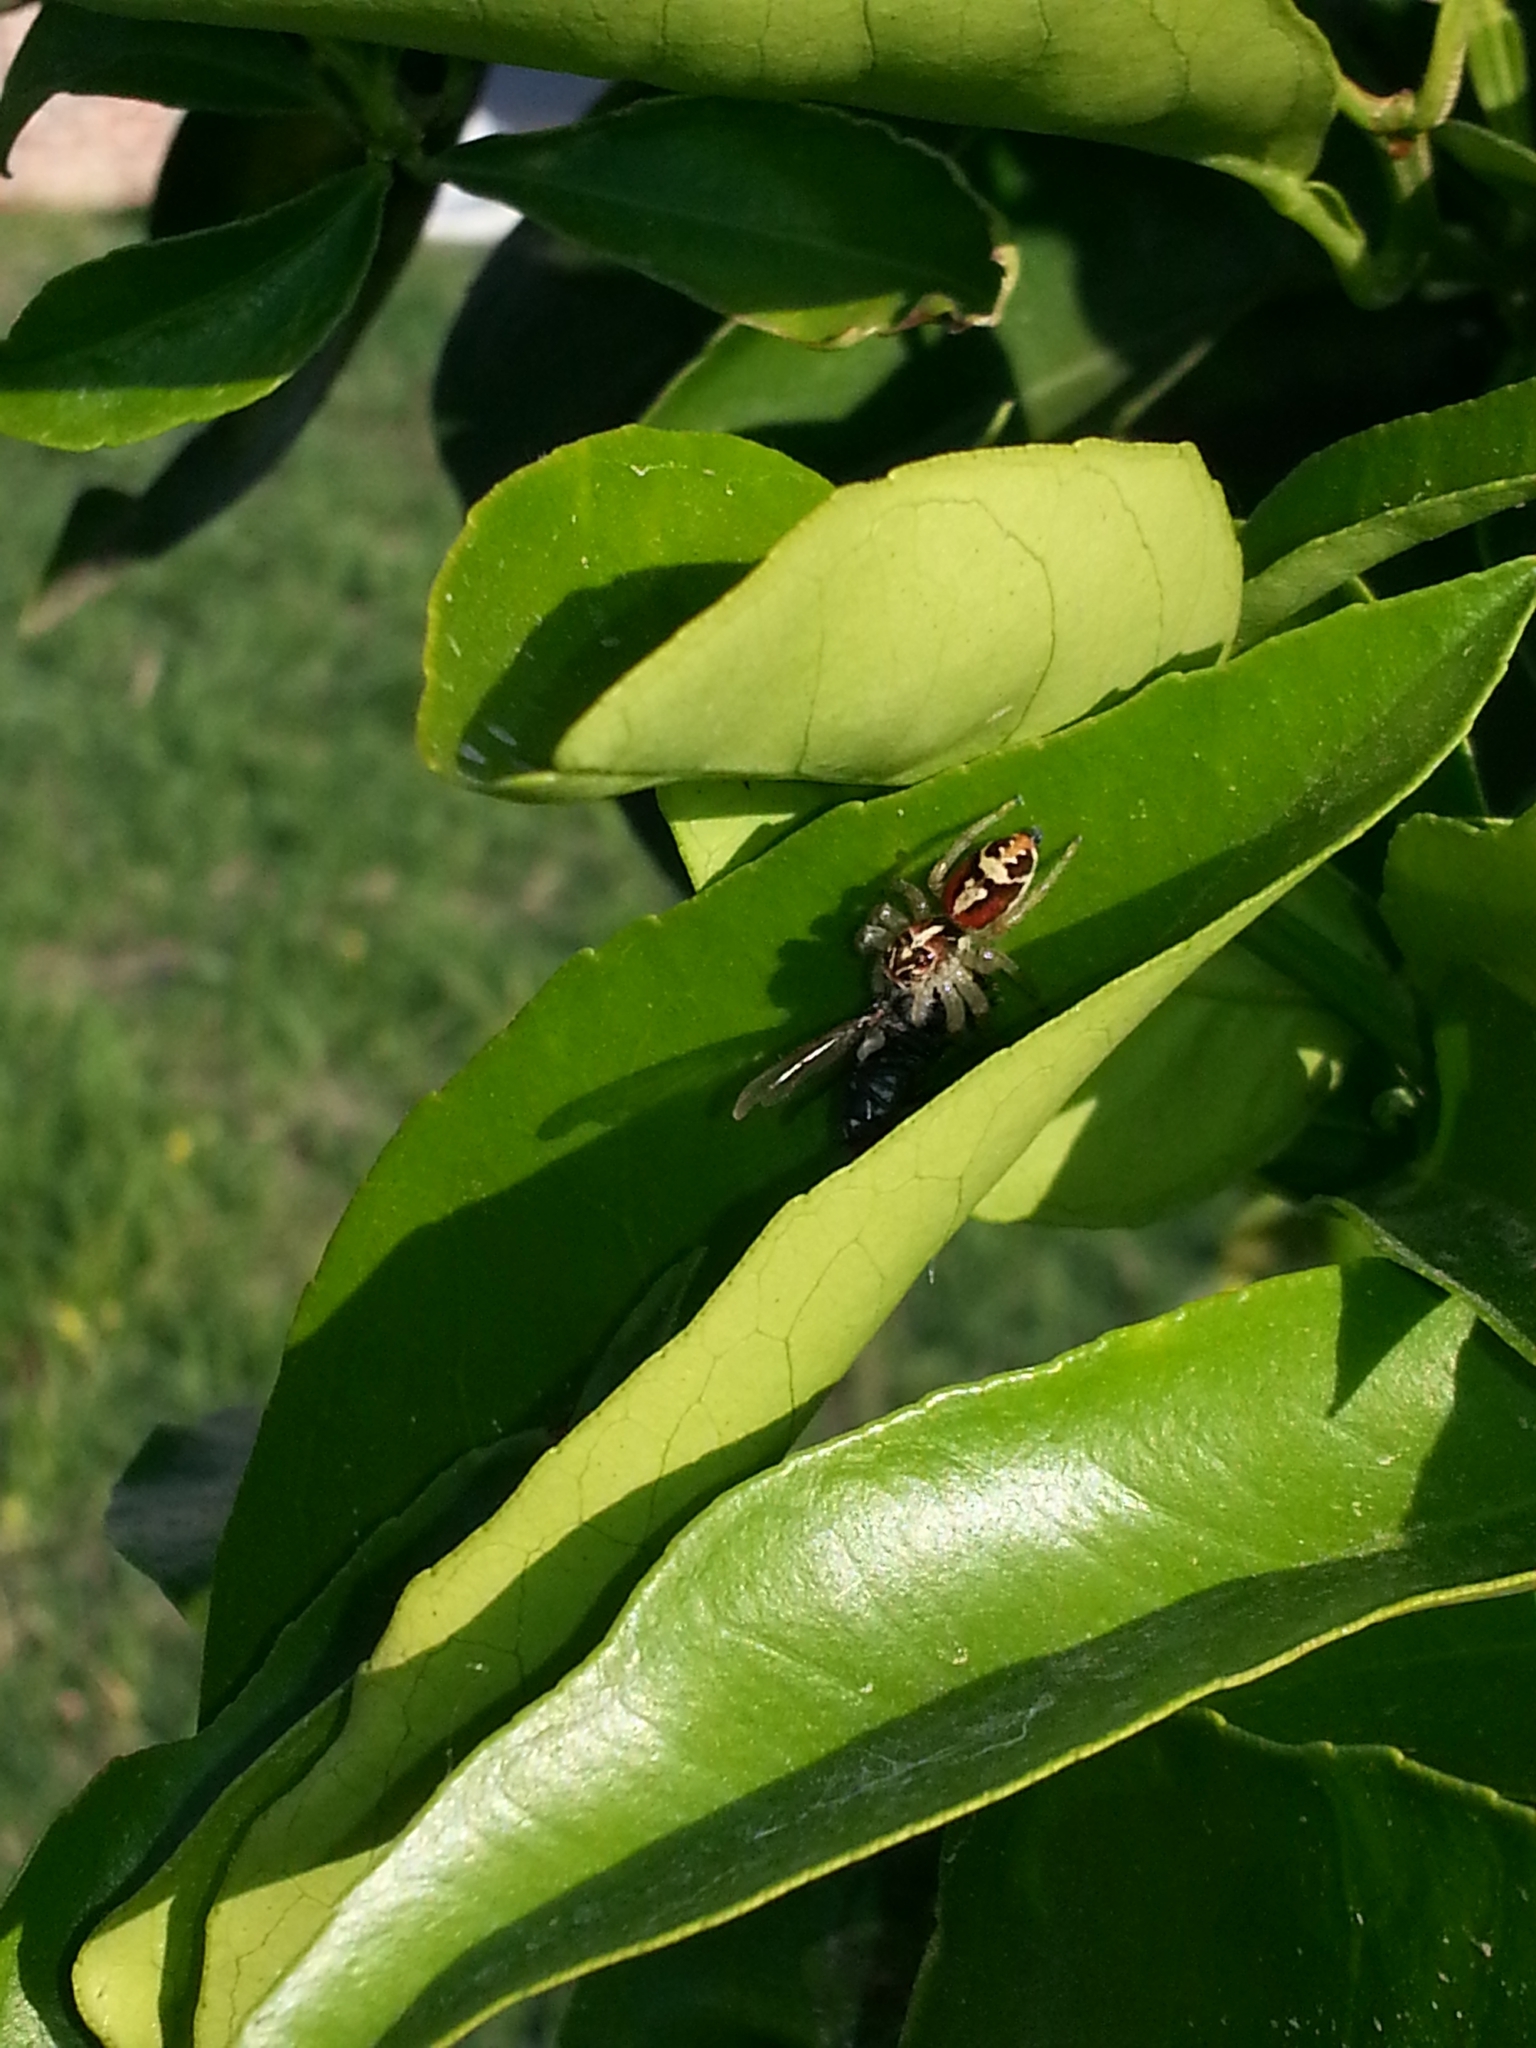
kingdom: Animalia
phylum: Arthropoda
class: Arachnida
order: Araneae
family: Salticidae
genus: Frigga
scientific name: Frigga quintensis
